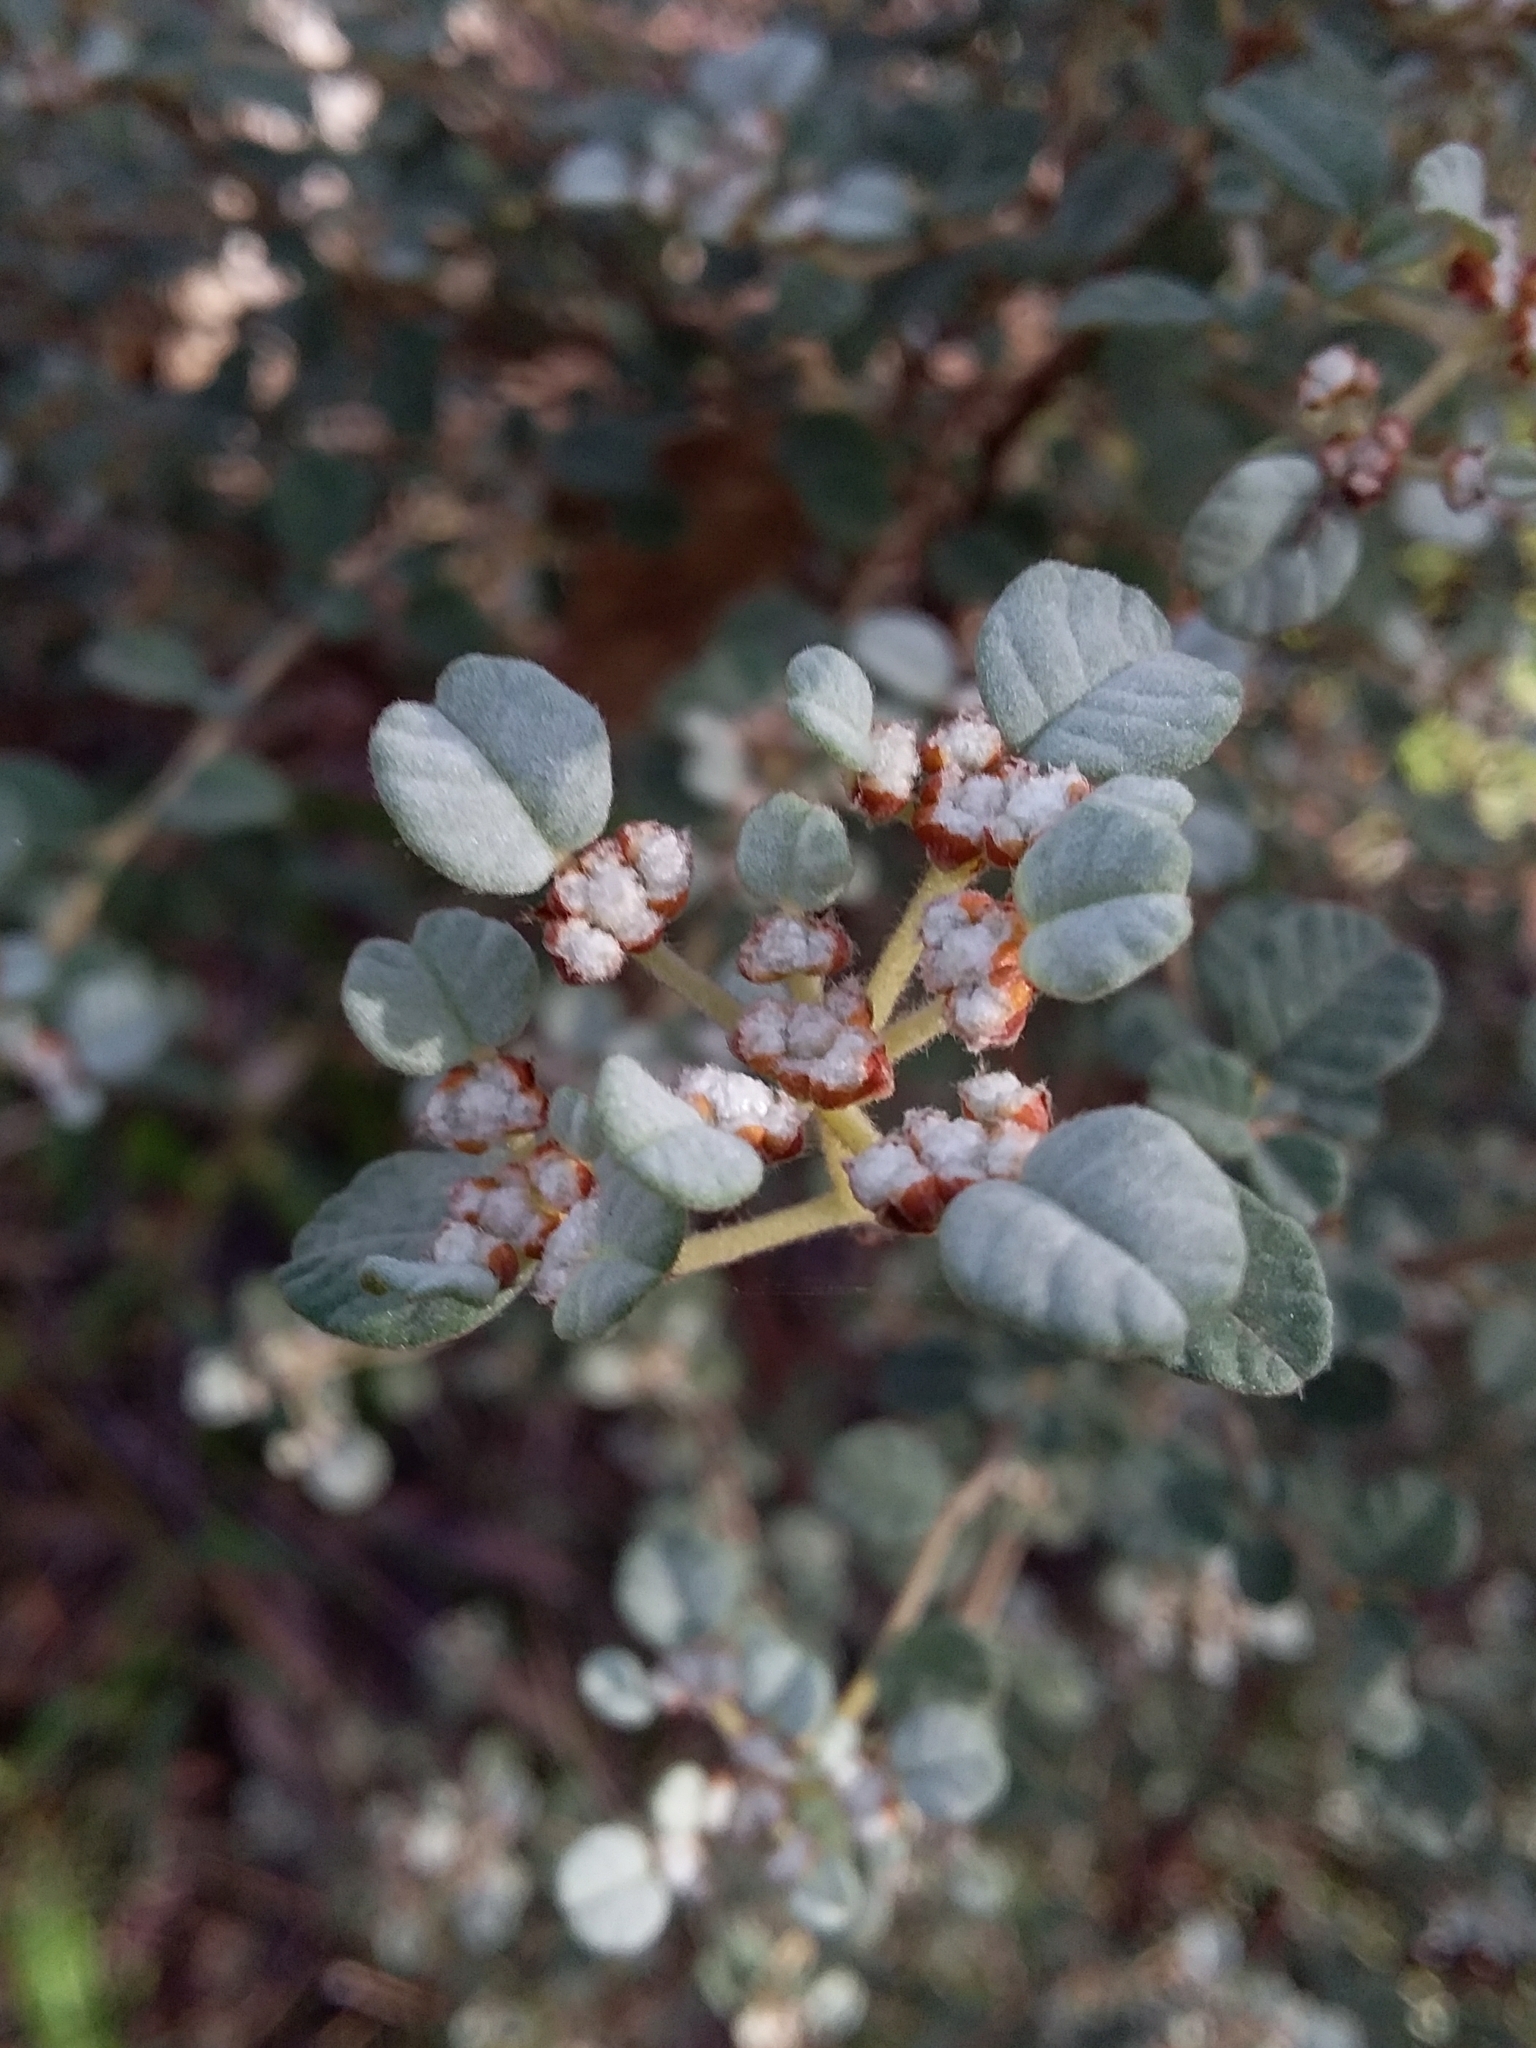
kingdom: Plantae
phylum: Tracheophyta
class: Magnoliopsida
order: Rosales
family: Rhamnaceae
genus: Spyridium
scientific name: Spyridium parvifolium
